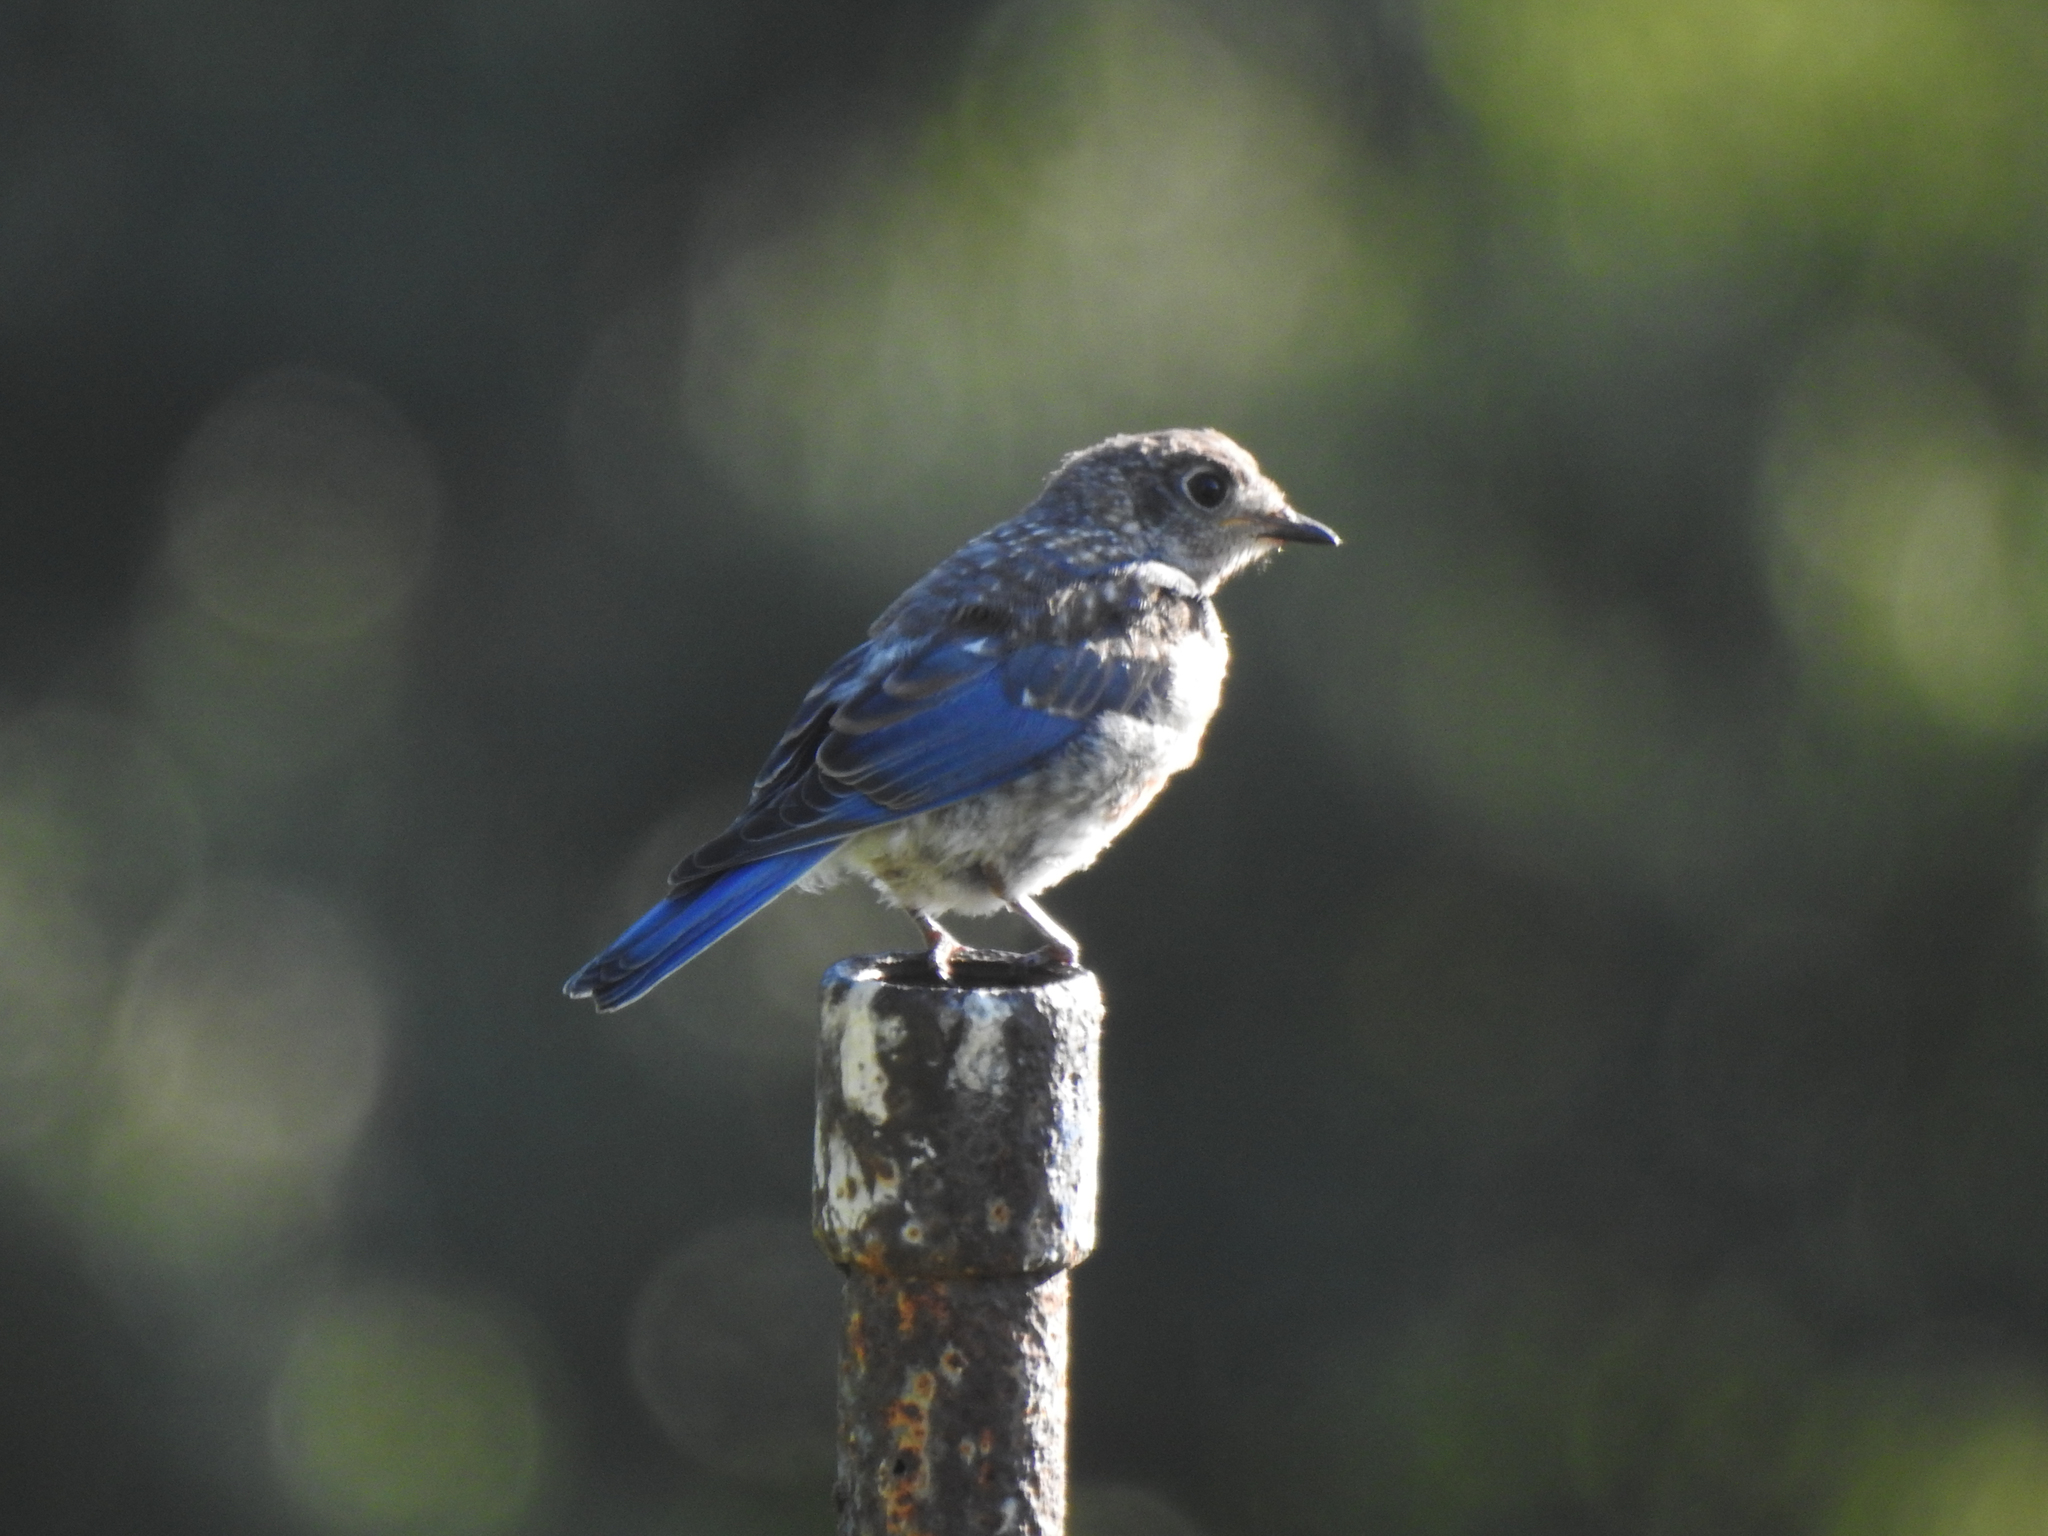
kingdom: Animalia
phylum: Chordata
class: Aves
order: Passeriformes
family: Turdidae
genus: Sialia
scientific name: Sialia sialis
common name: Eastern bluebird
